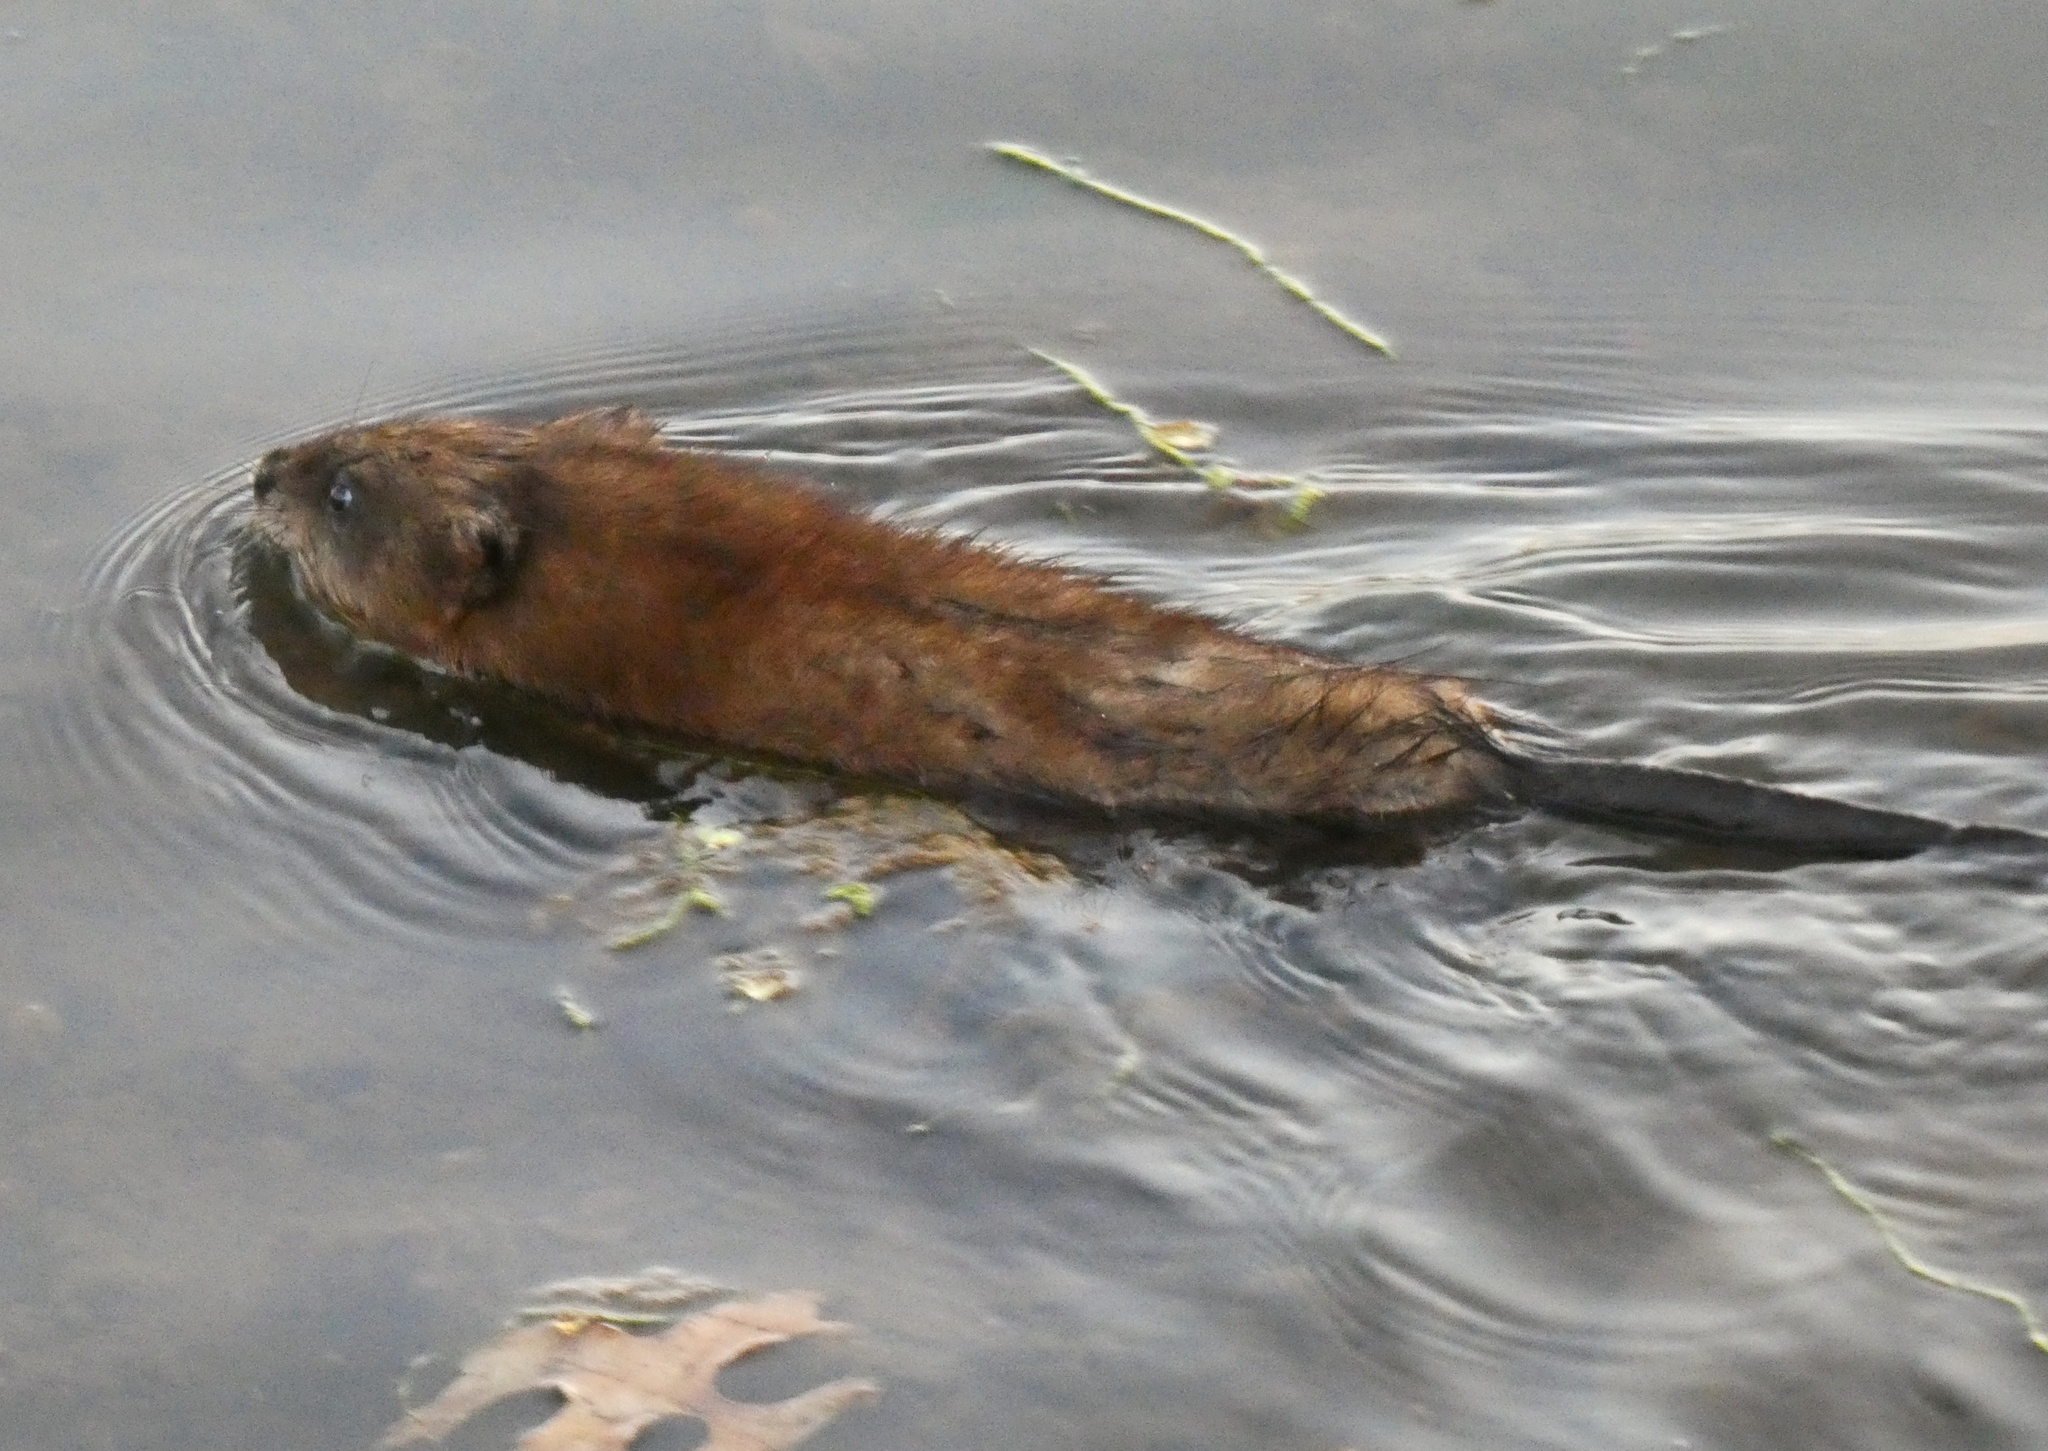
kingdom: Animalia
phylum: Chordata
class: Mammalia
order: Rodentia
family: Cricetidae
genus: Ondatra
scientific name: Ondatra zibethicus
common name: Muskrat
